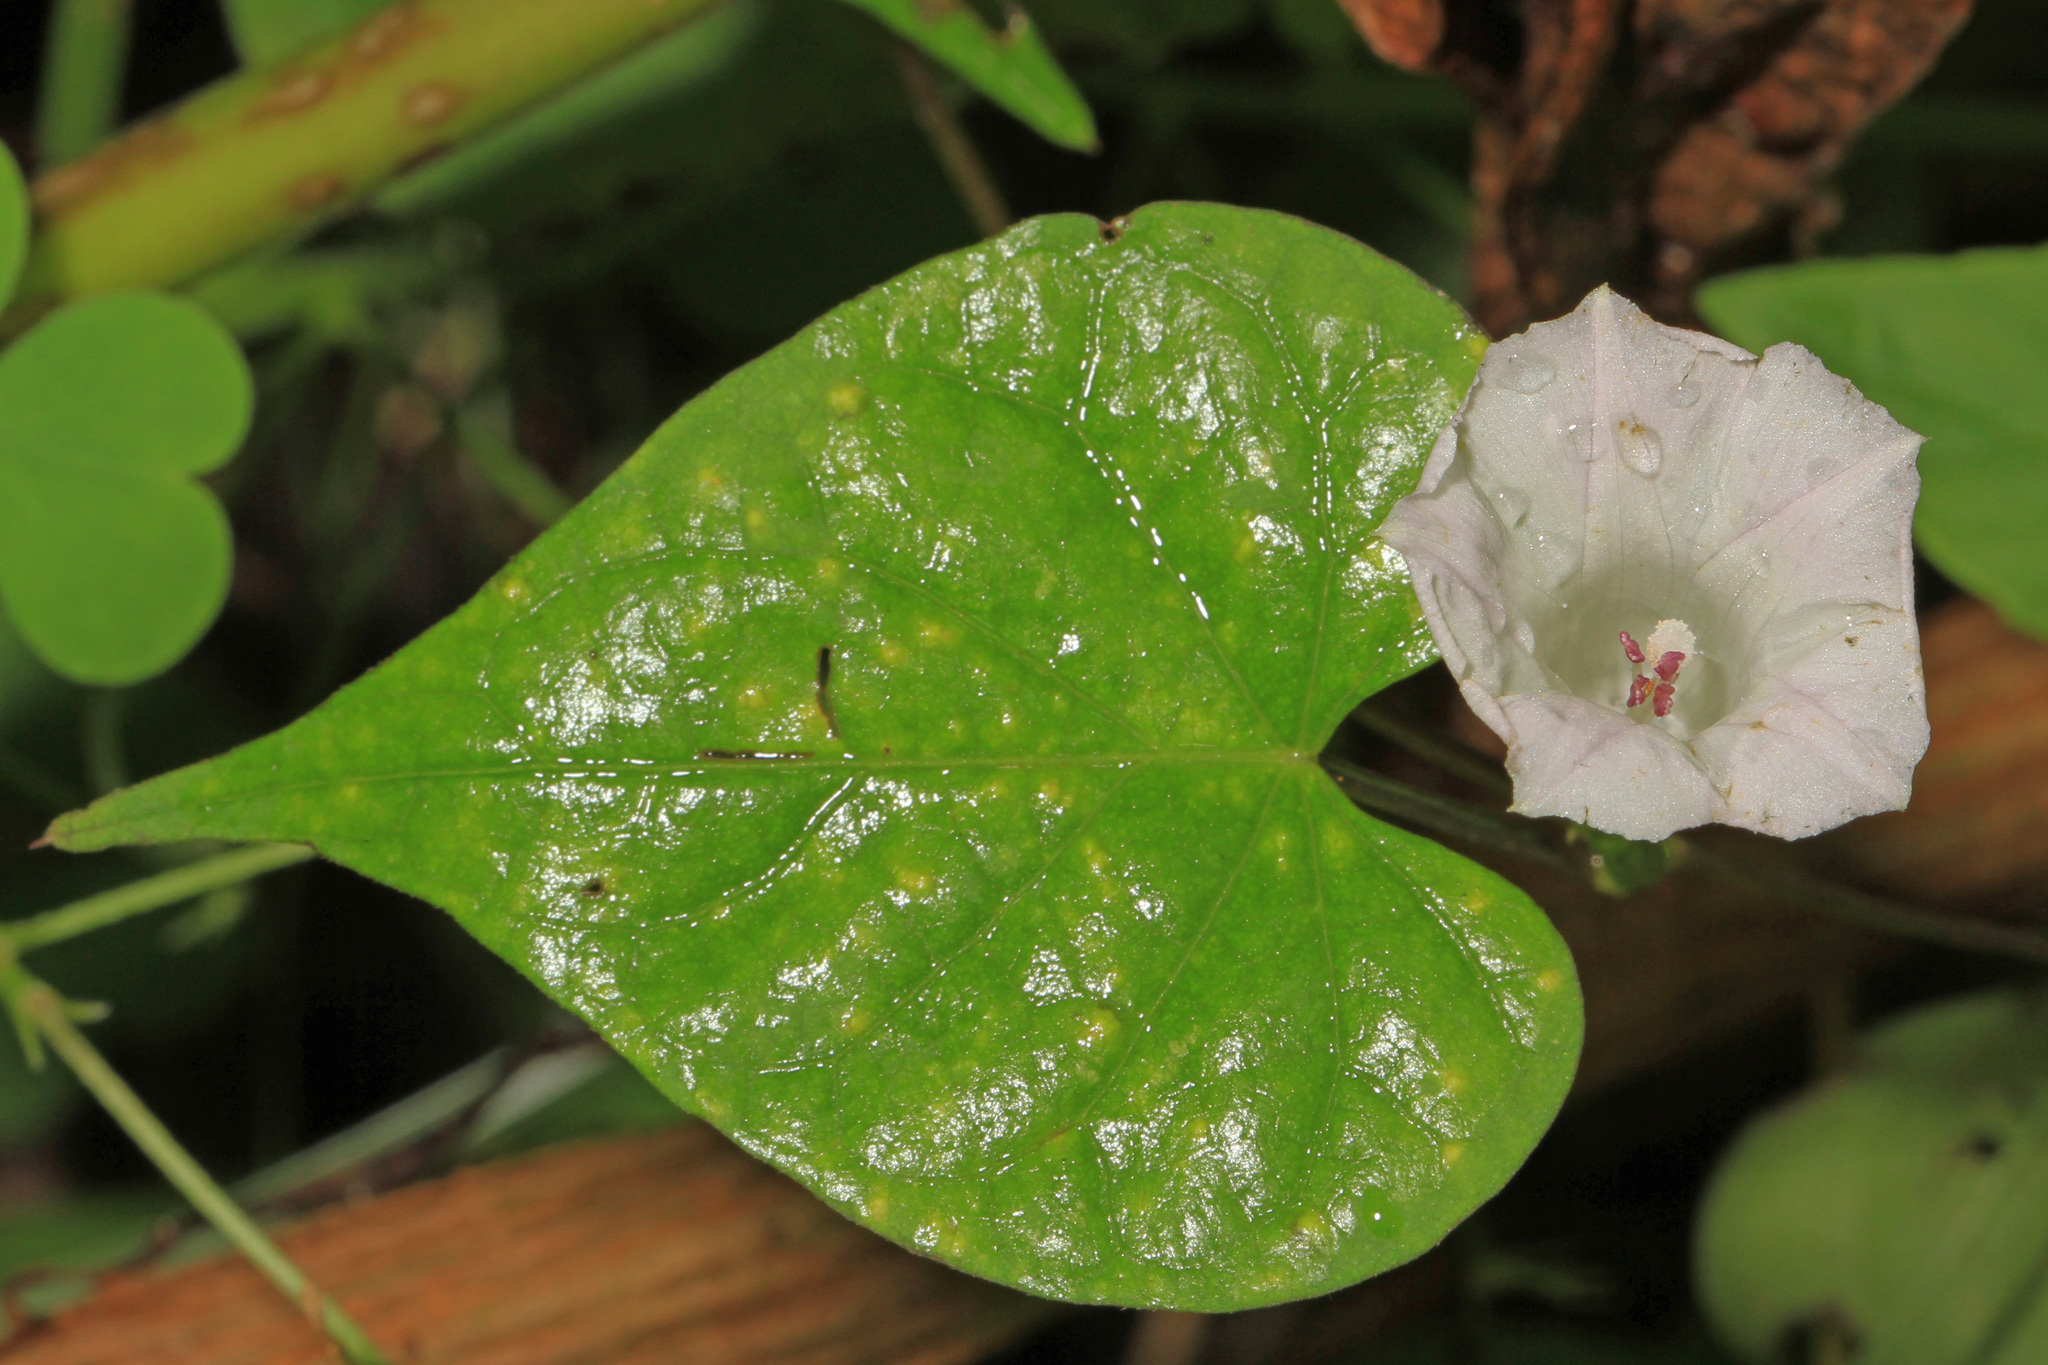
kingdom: Plantae
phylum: Tracheophyta
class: Magnoliopsida
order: Solanales
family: Convolvulaceae
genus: Ipomoea
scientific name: Ipomoea lacunosa
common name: White morning-glory
